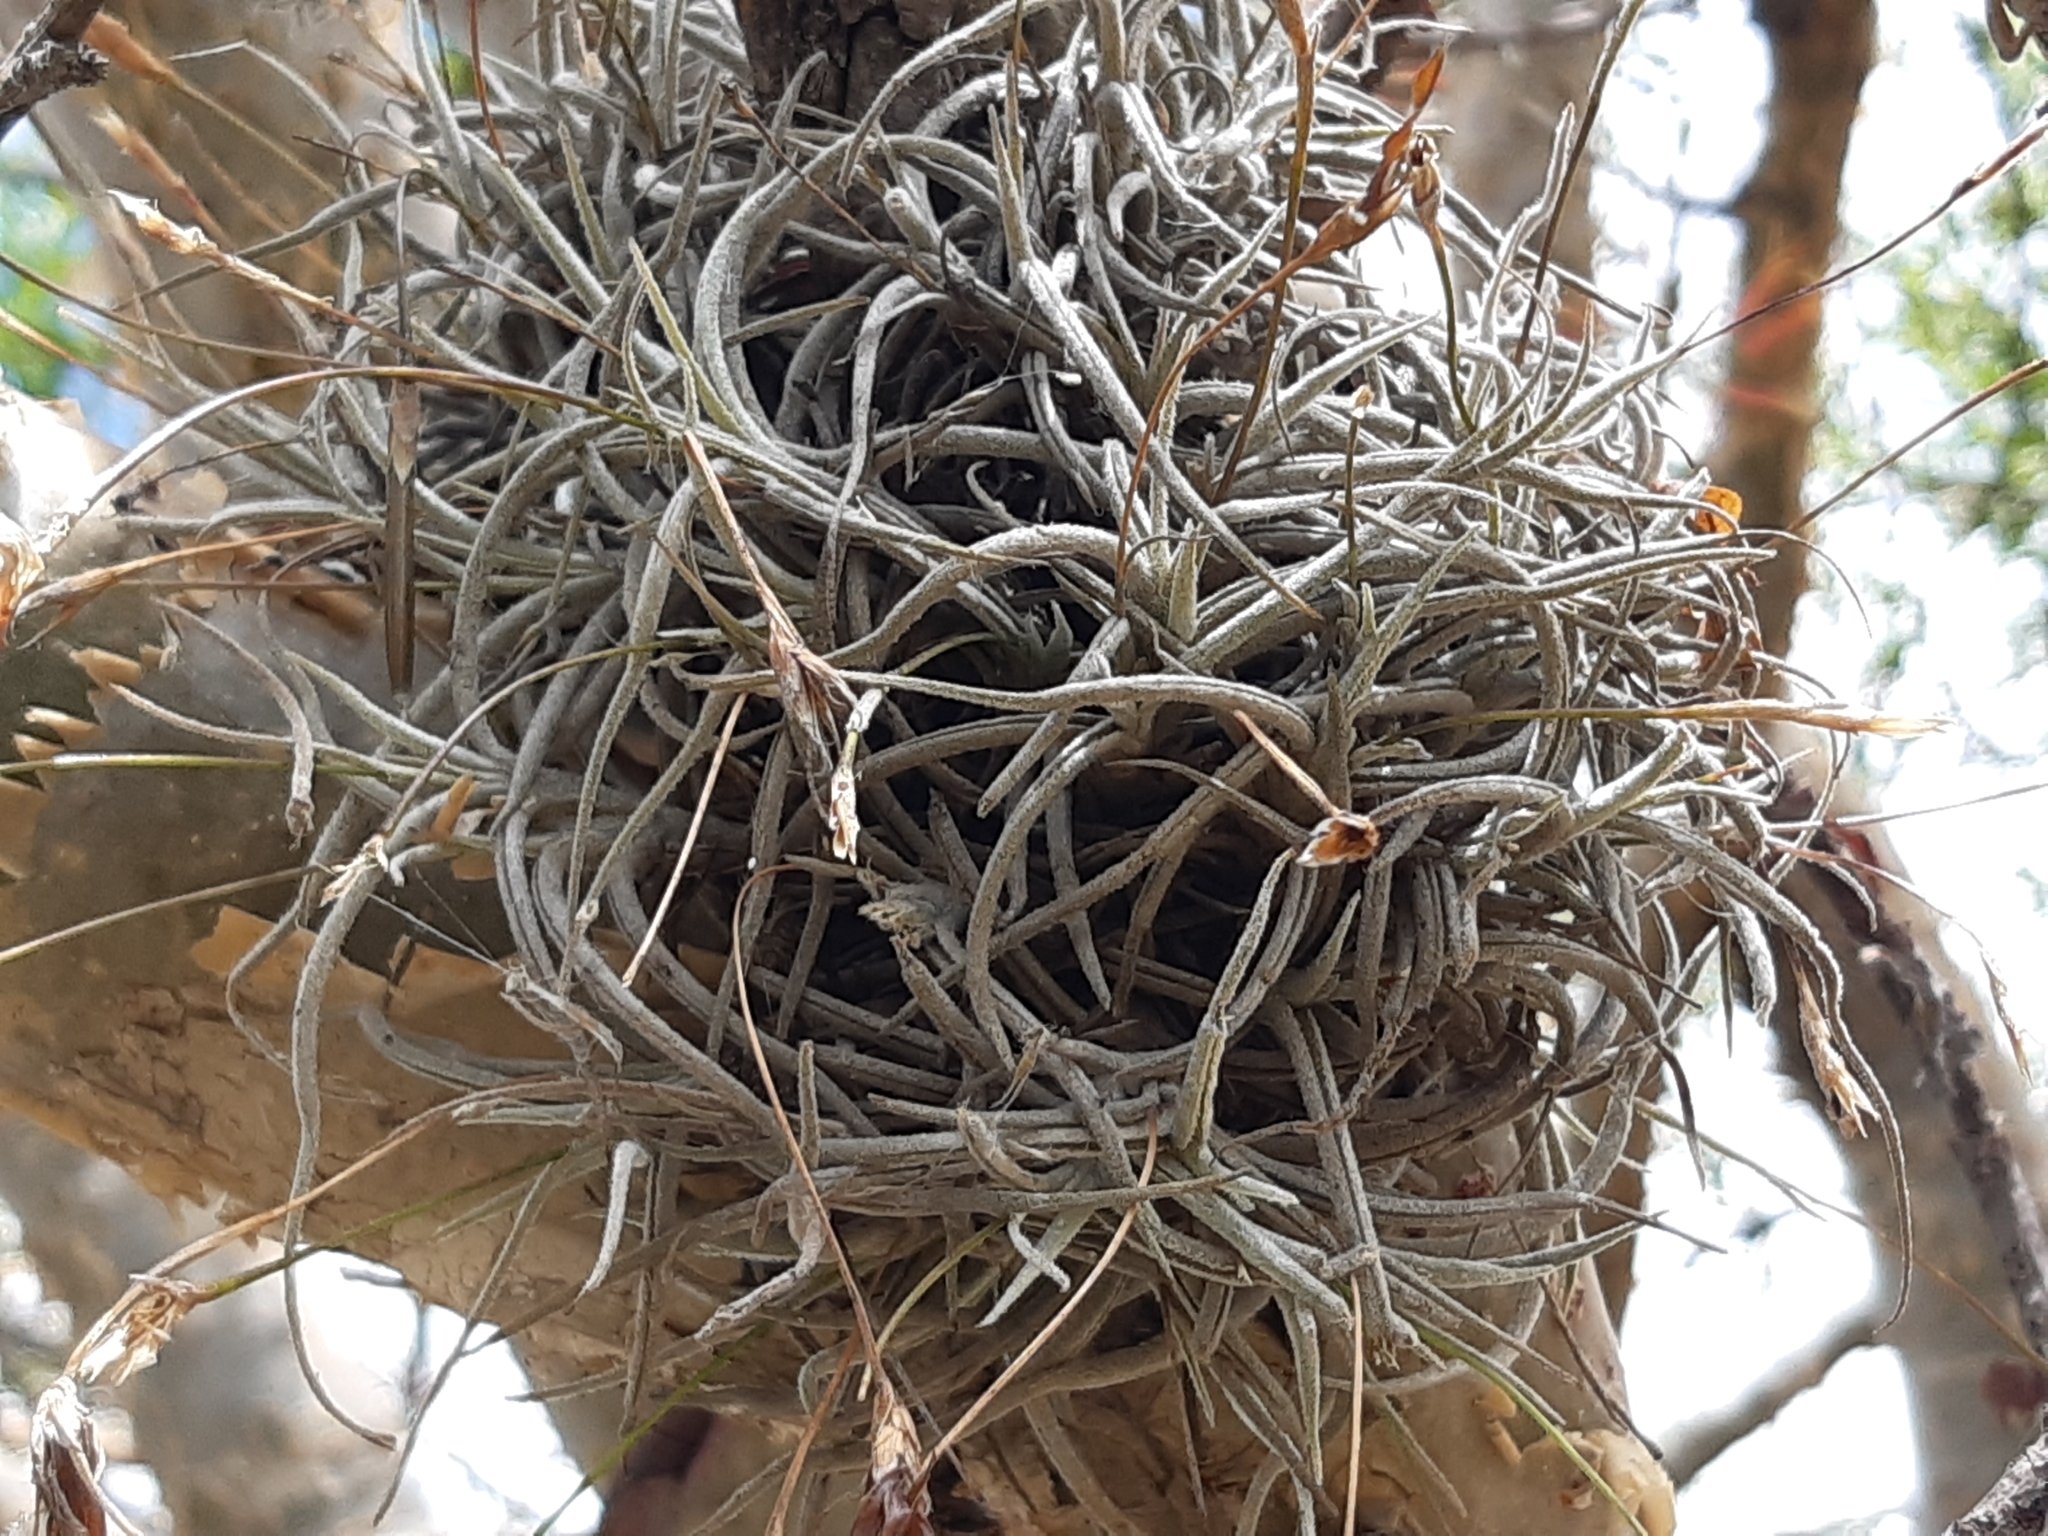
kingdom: Plantae
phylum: Tracheophyta
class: Liliopsida
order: Poales
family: Bromeliaceae
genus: Tillandsia
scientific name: Tillandsia recurvata
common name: Small ballmoss
